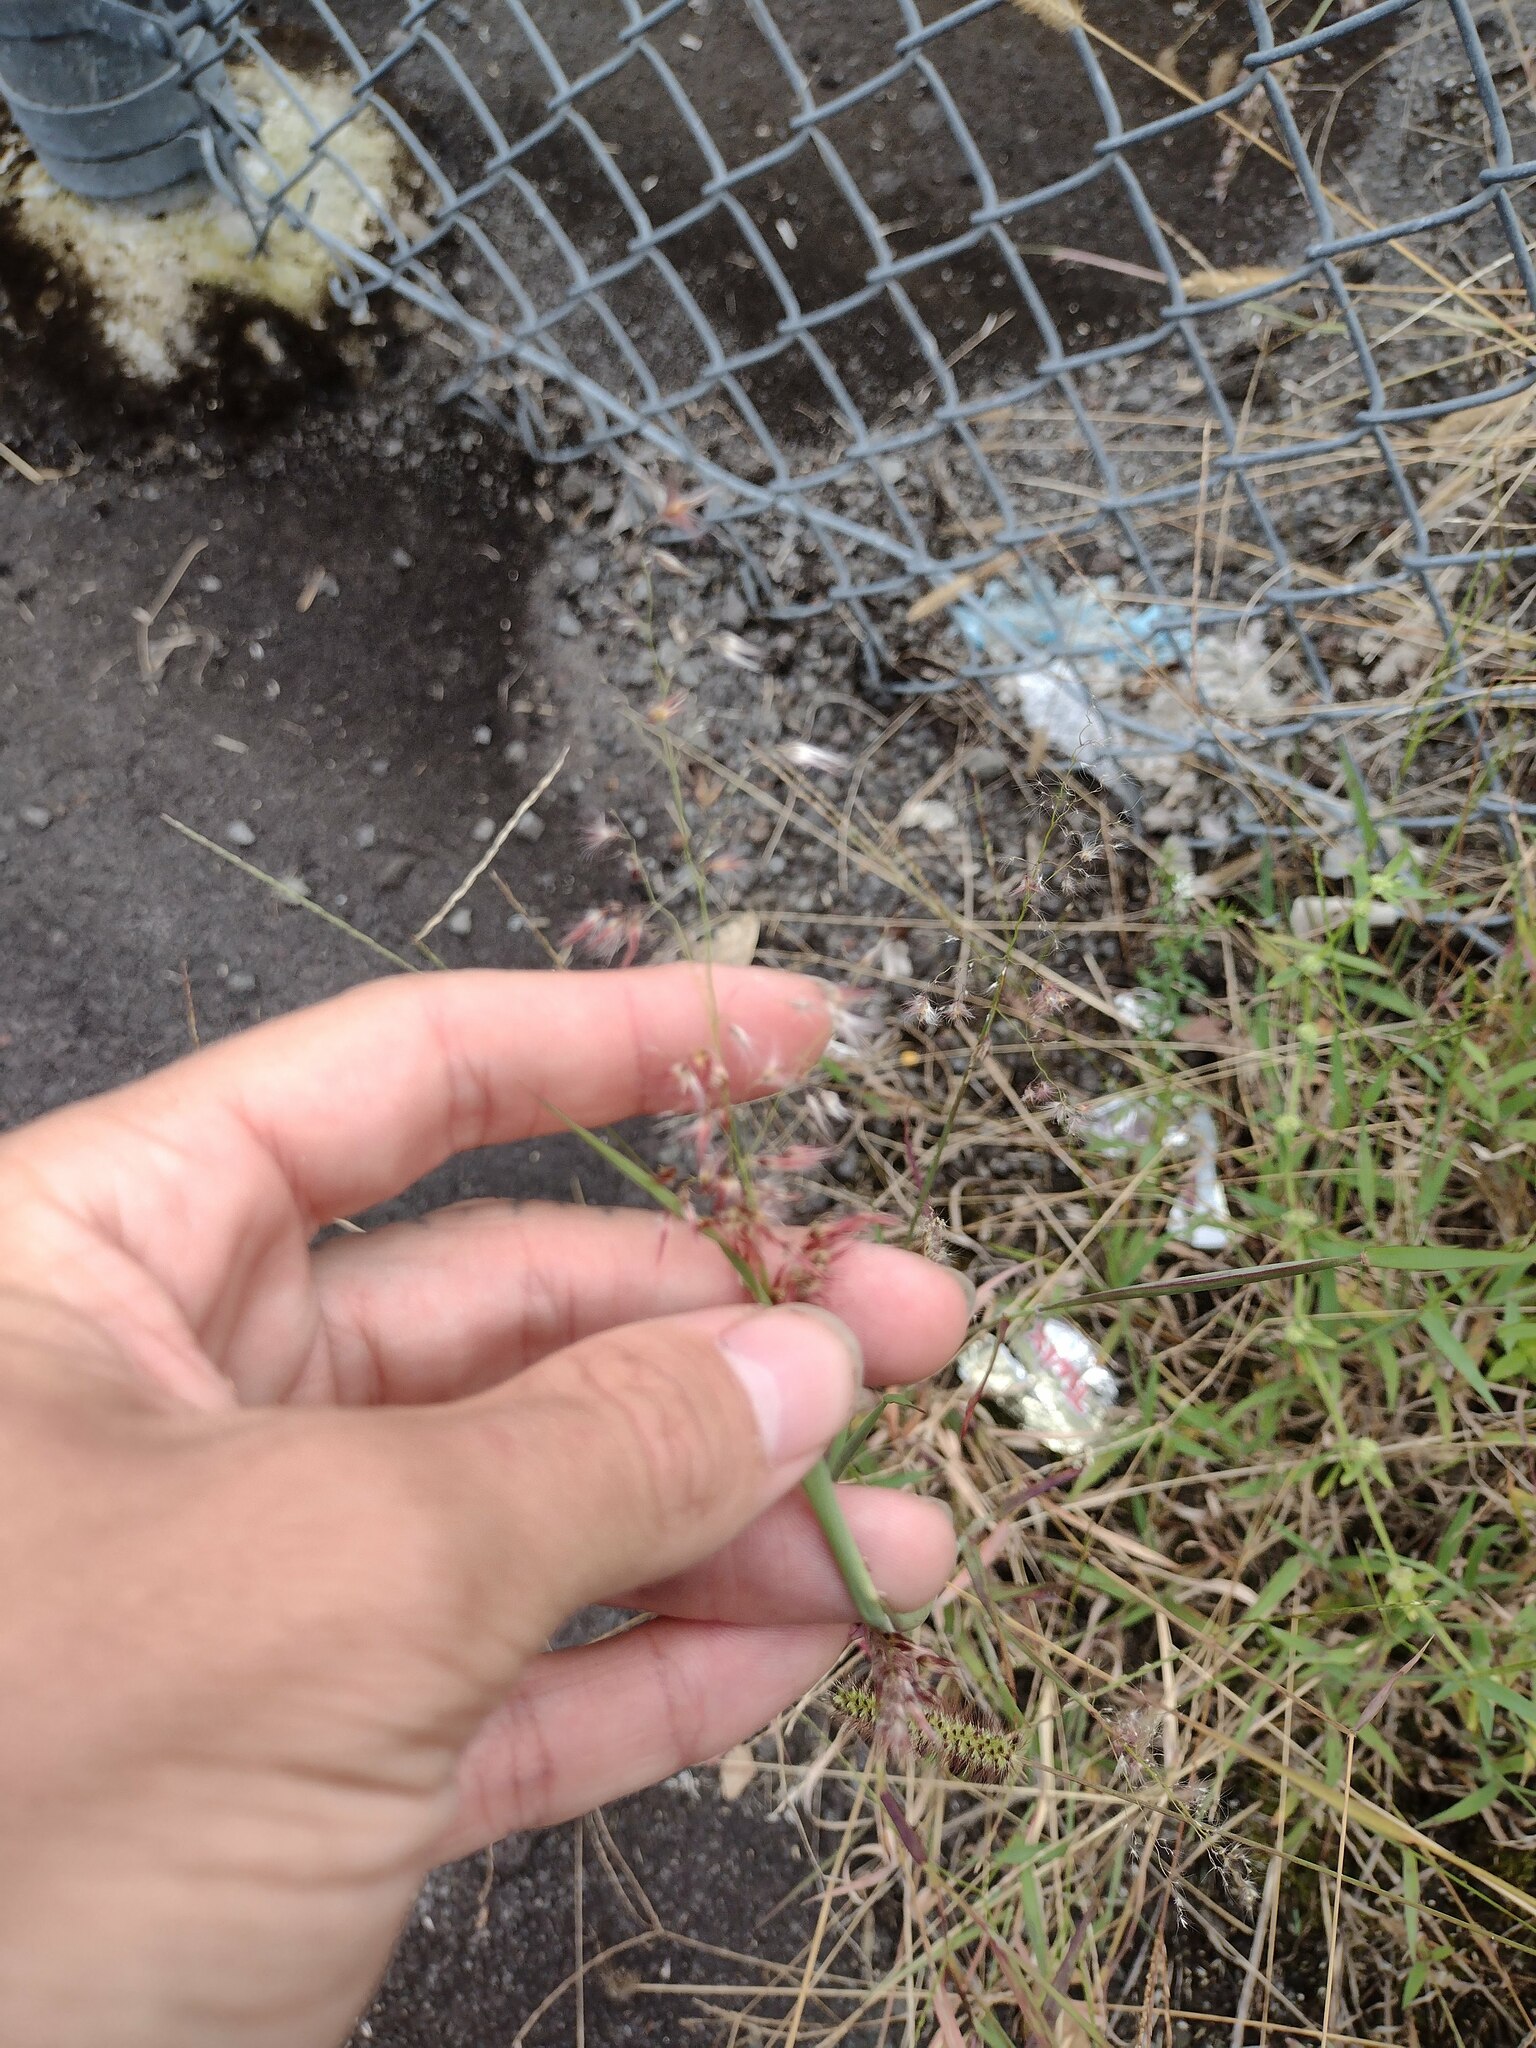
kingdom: Plantae
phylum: Tracheophyta
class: Liliopsida
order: Poales
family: Poaceae
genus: Melinis
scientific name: Melinis repens
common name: Rose natal grass
